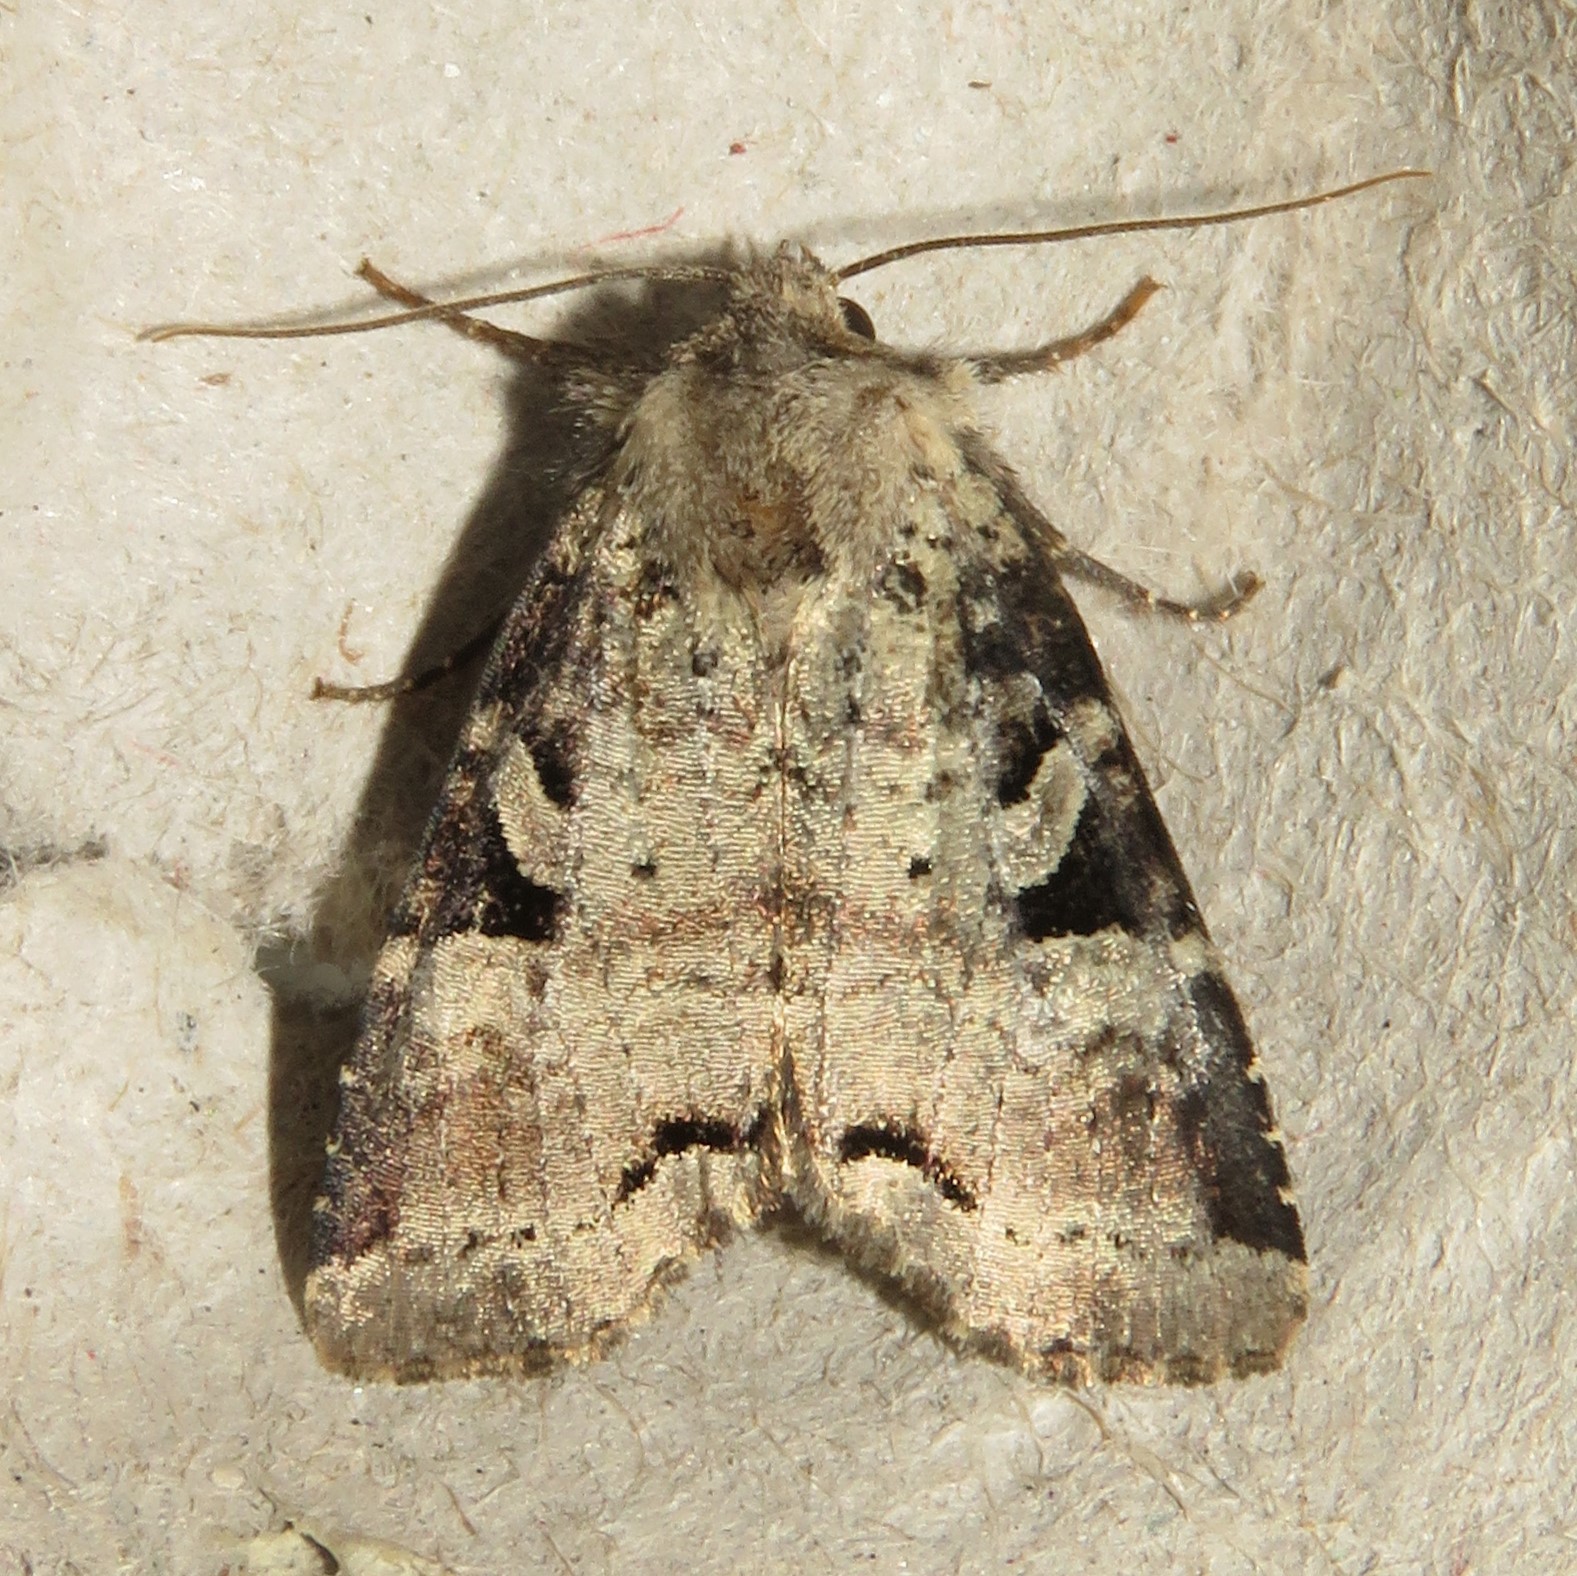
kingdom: Animalia
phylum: Arthropoda
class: Insecta
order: Lepidoptera
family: Noctuidae
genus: Hillia
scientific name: Hillia iris
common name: Iris rover moth
